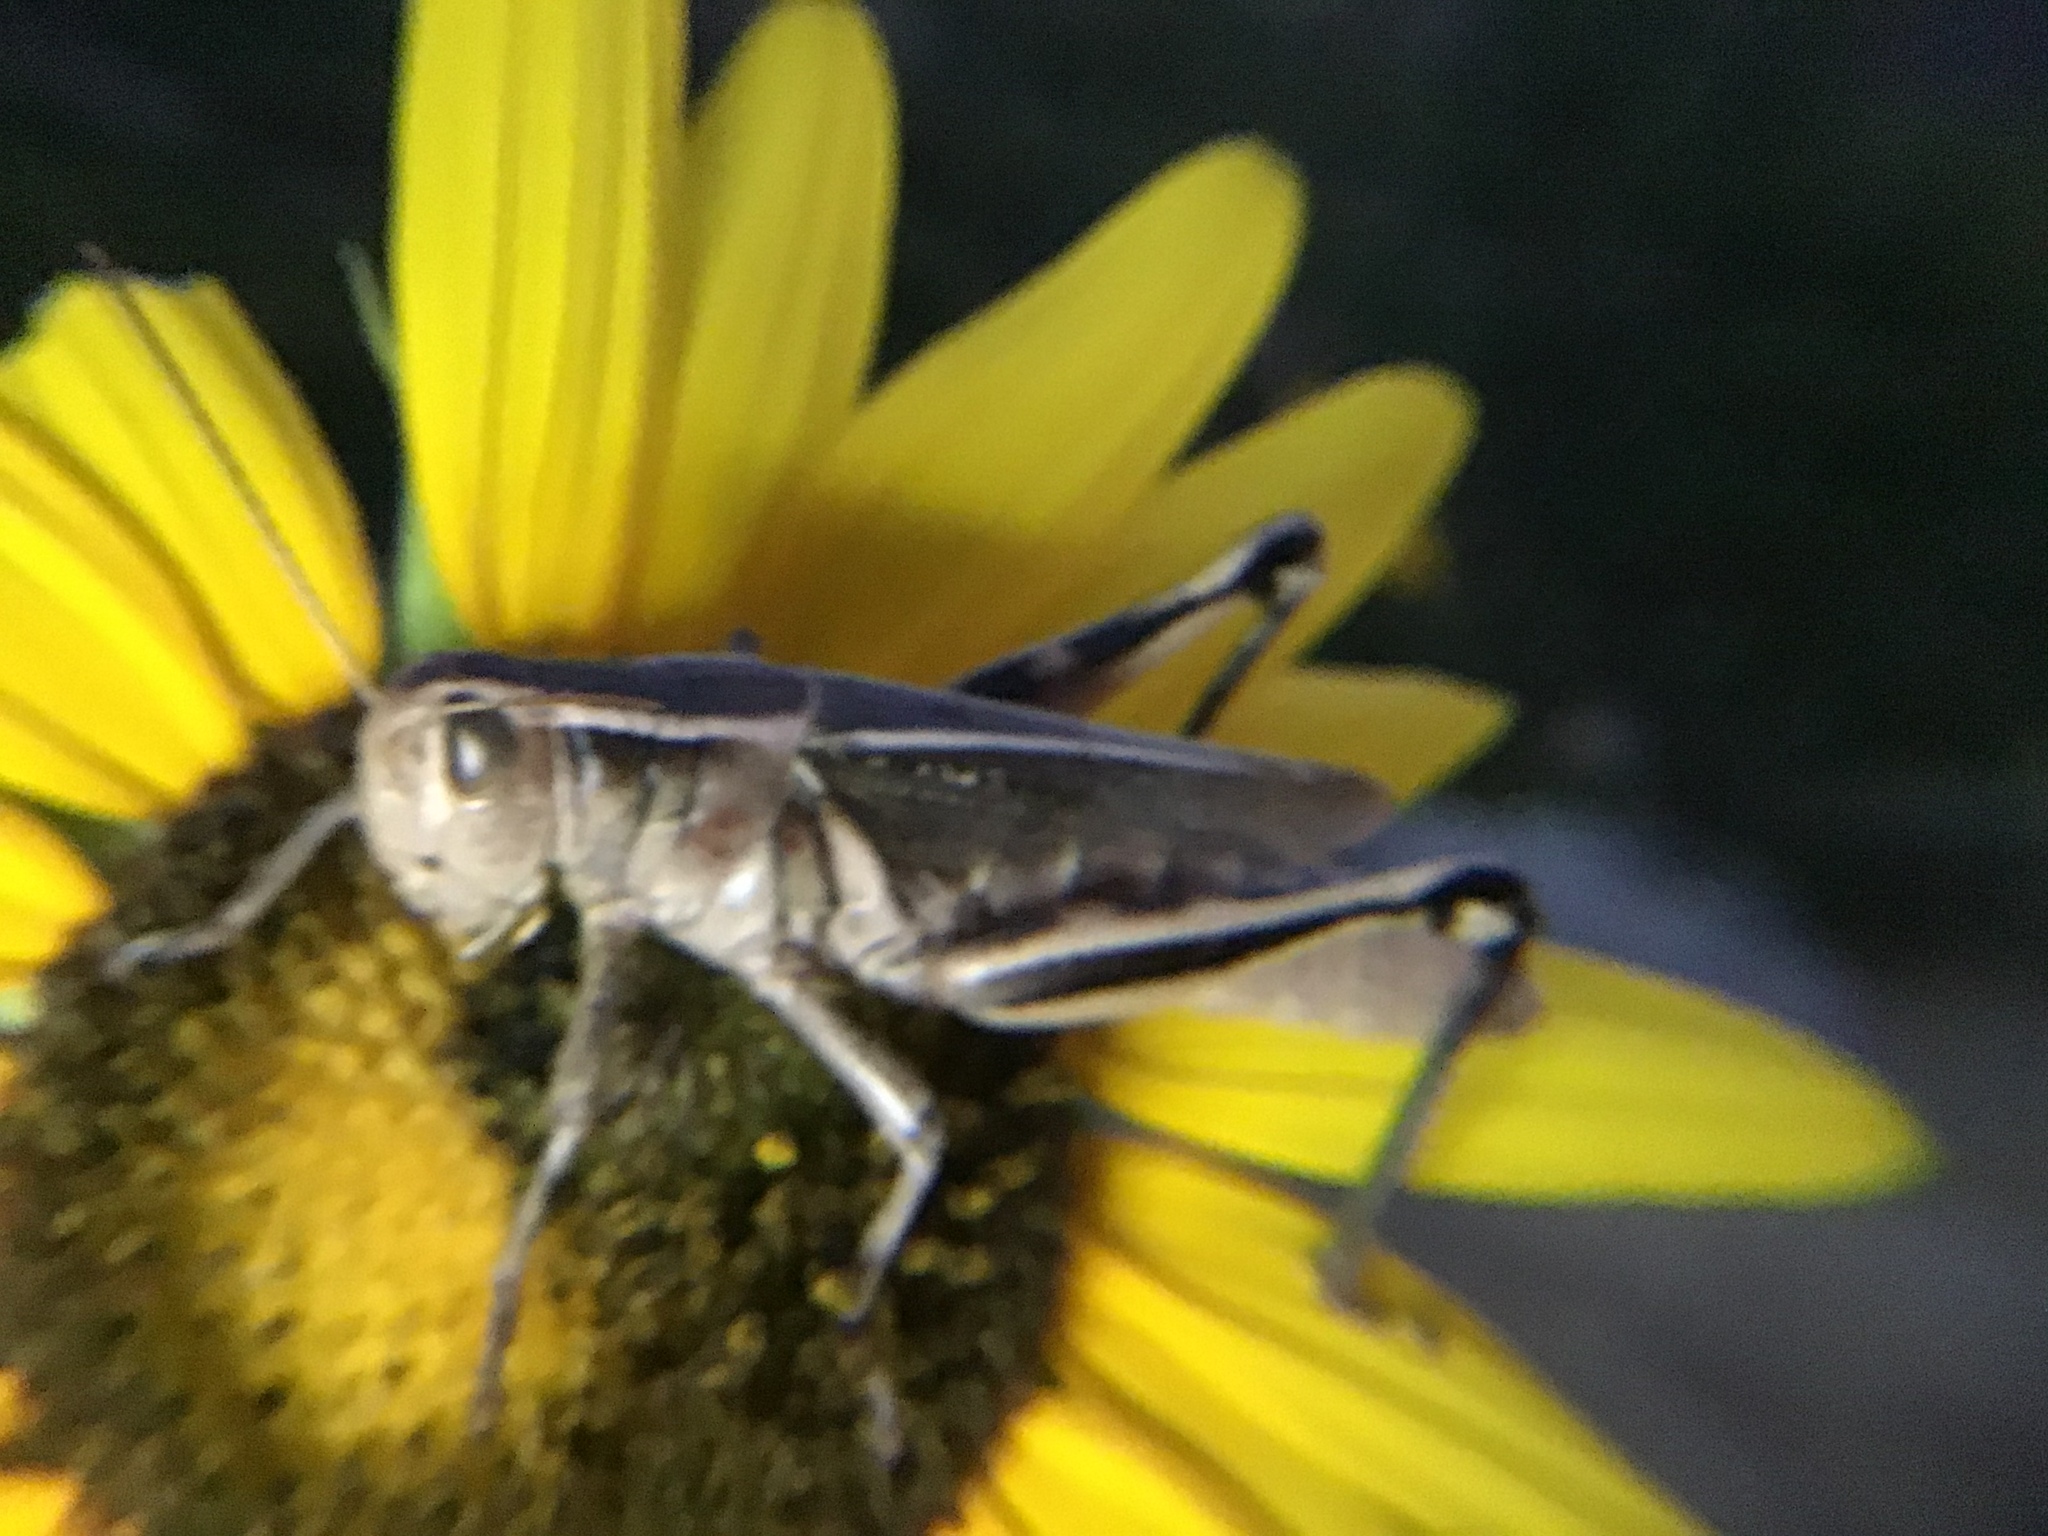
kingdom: Animalia
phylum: Arthropoda
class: Insecta
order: Orthoptera
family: Acrididae
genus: Melanoplus
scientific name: Melanoplus bivittatus
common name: Two-striped grasshopper
